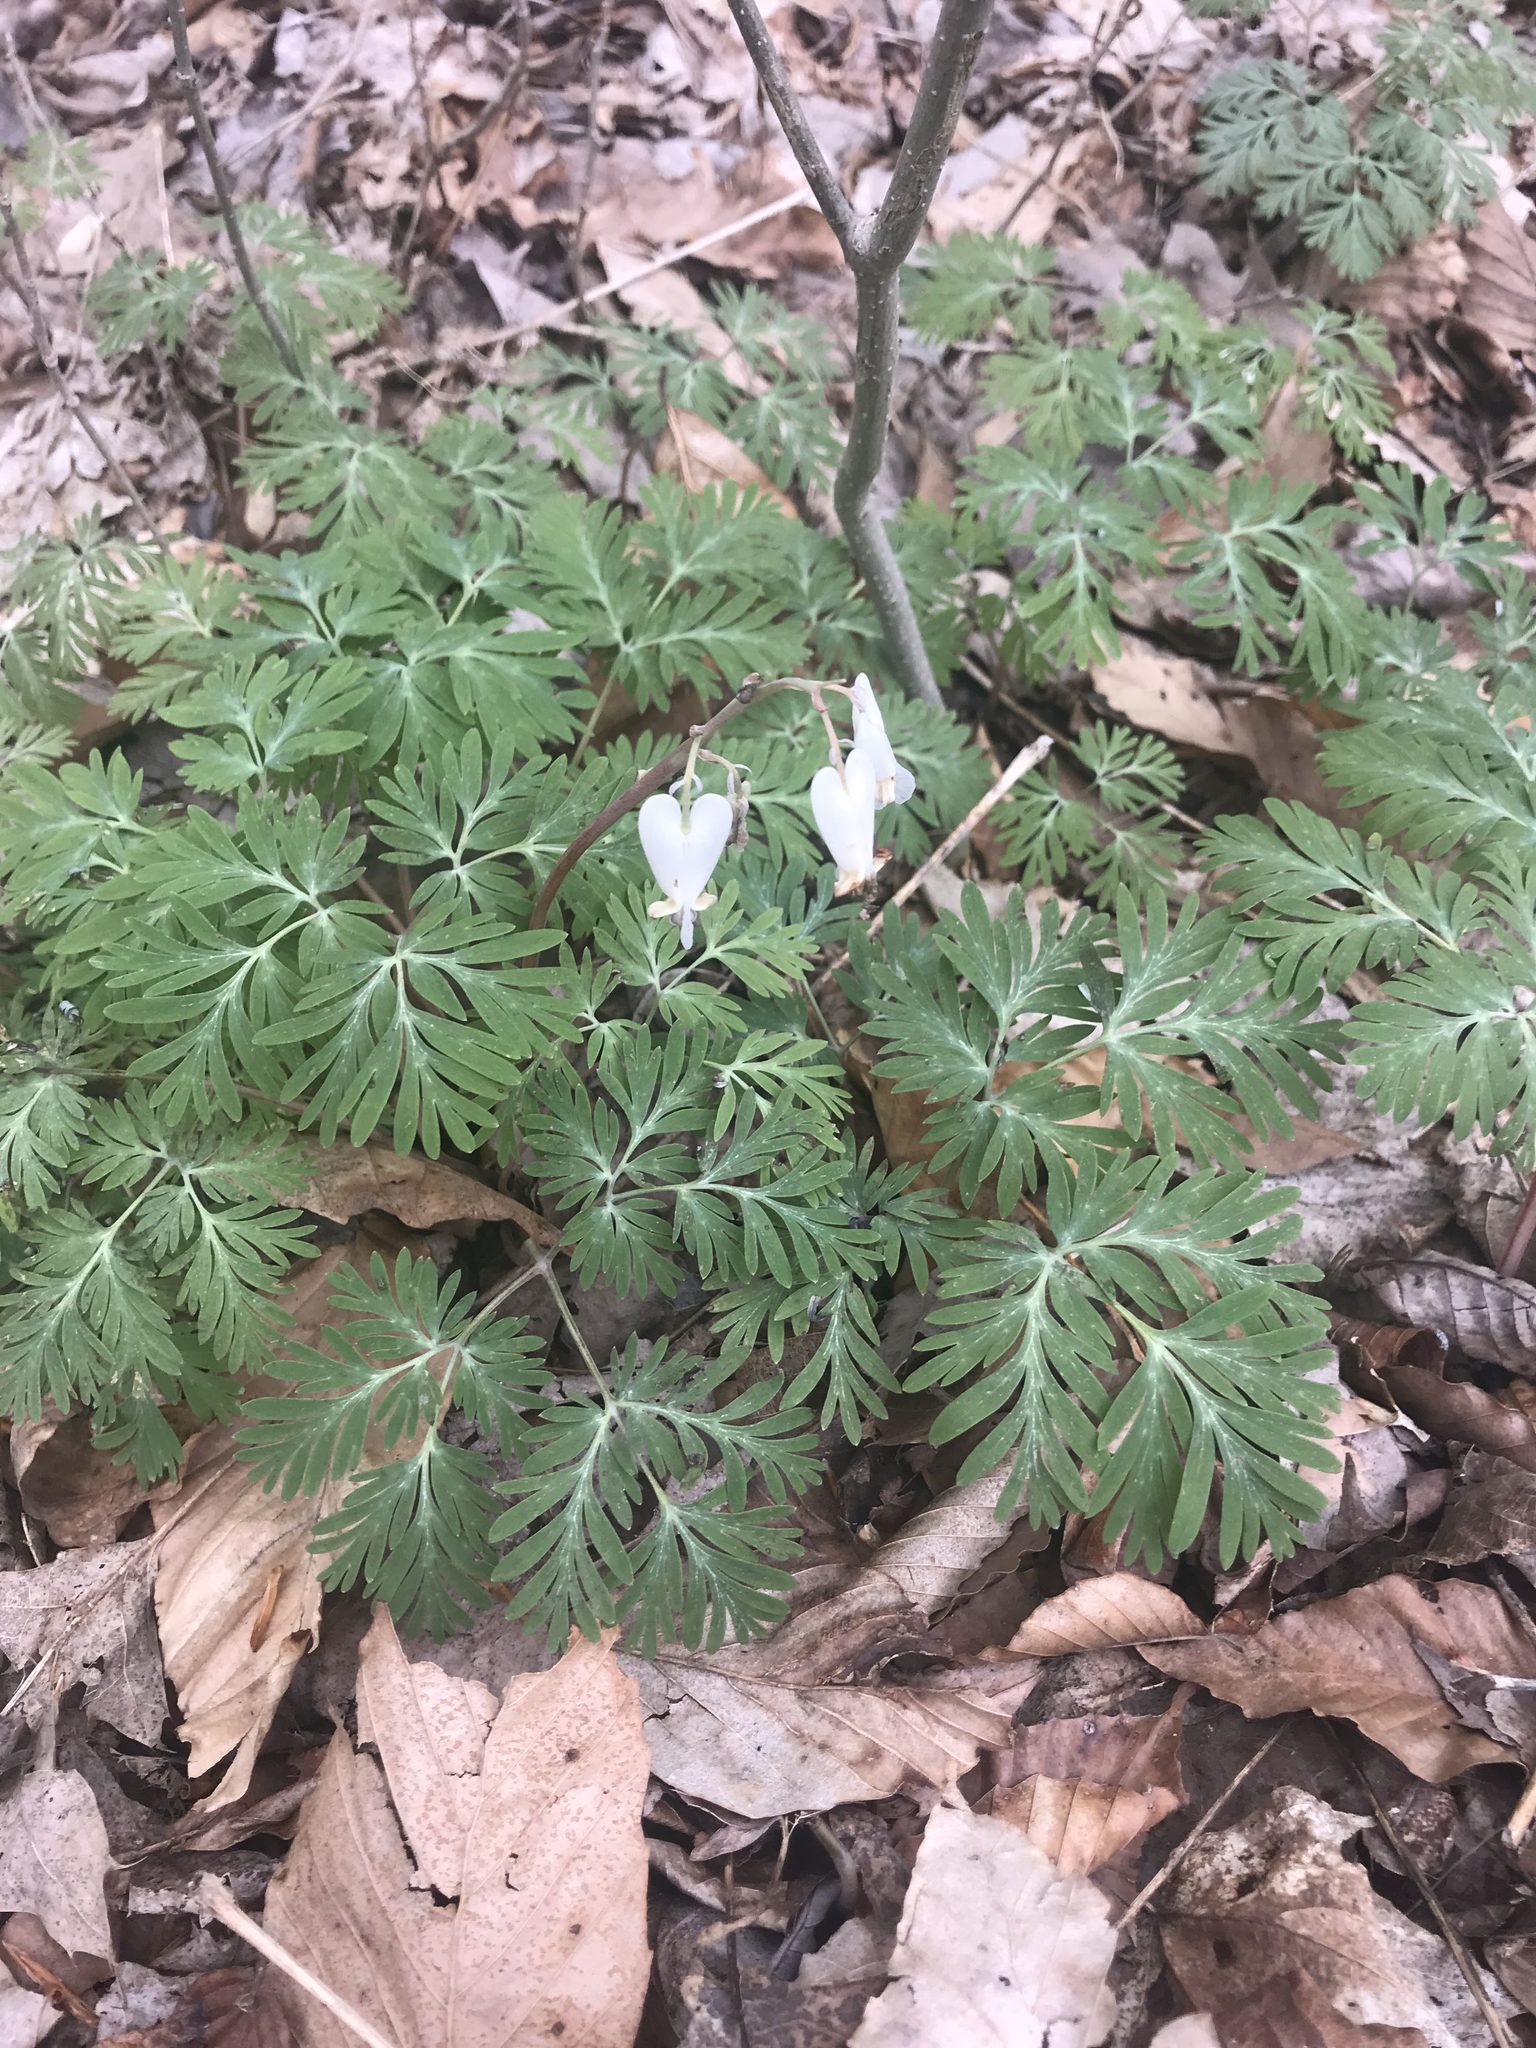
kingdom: Plantae
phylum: Tracheophyta
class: Magnoliopsida
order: Ranunculales
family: Papaveraceae
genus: Dicentra
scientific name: Dicentra canadensis
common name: Squirrel-corn
